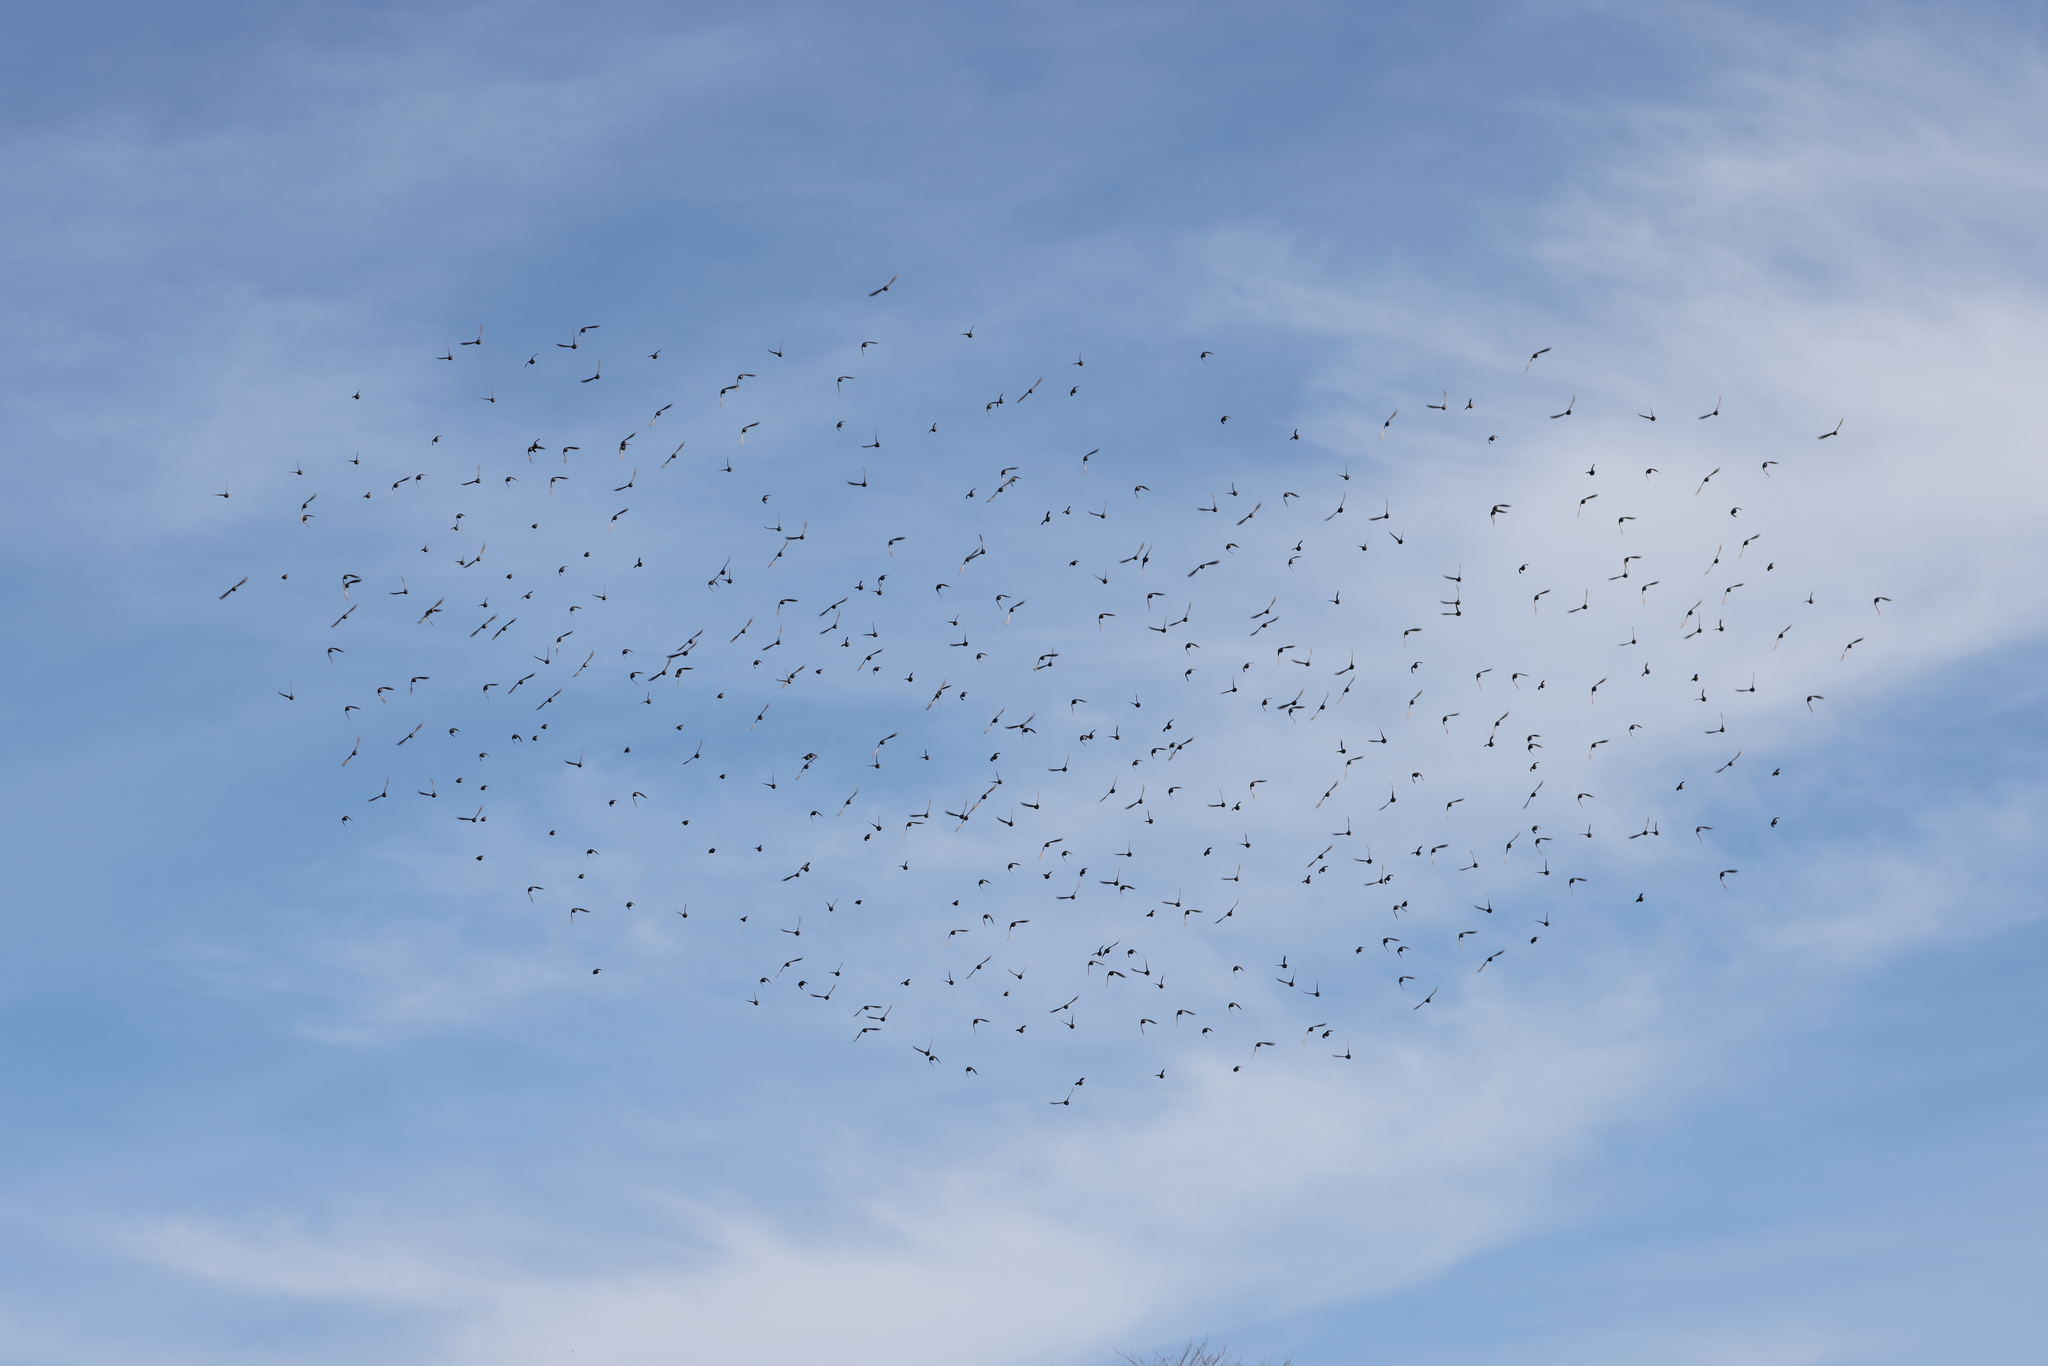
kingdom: Animalia
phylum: Chordata
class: Aves
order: Passeriformes
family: Sturnidae
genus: Sturnus
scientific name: Sturnus vulgaris
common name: Common starling
